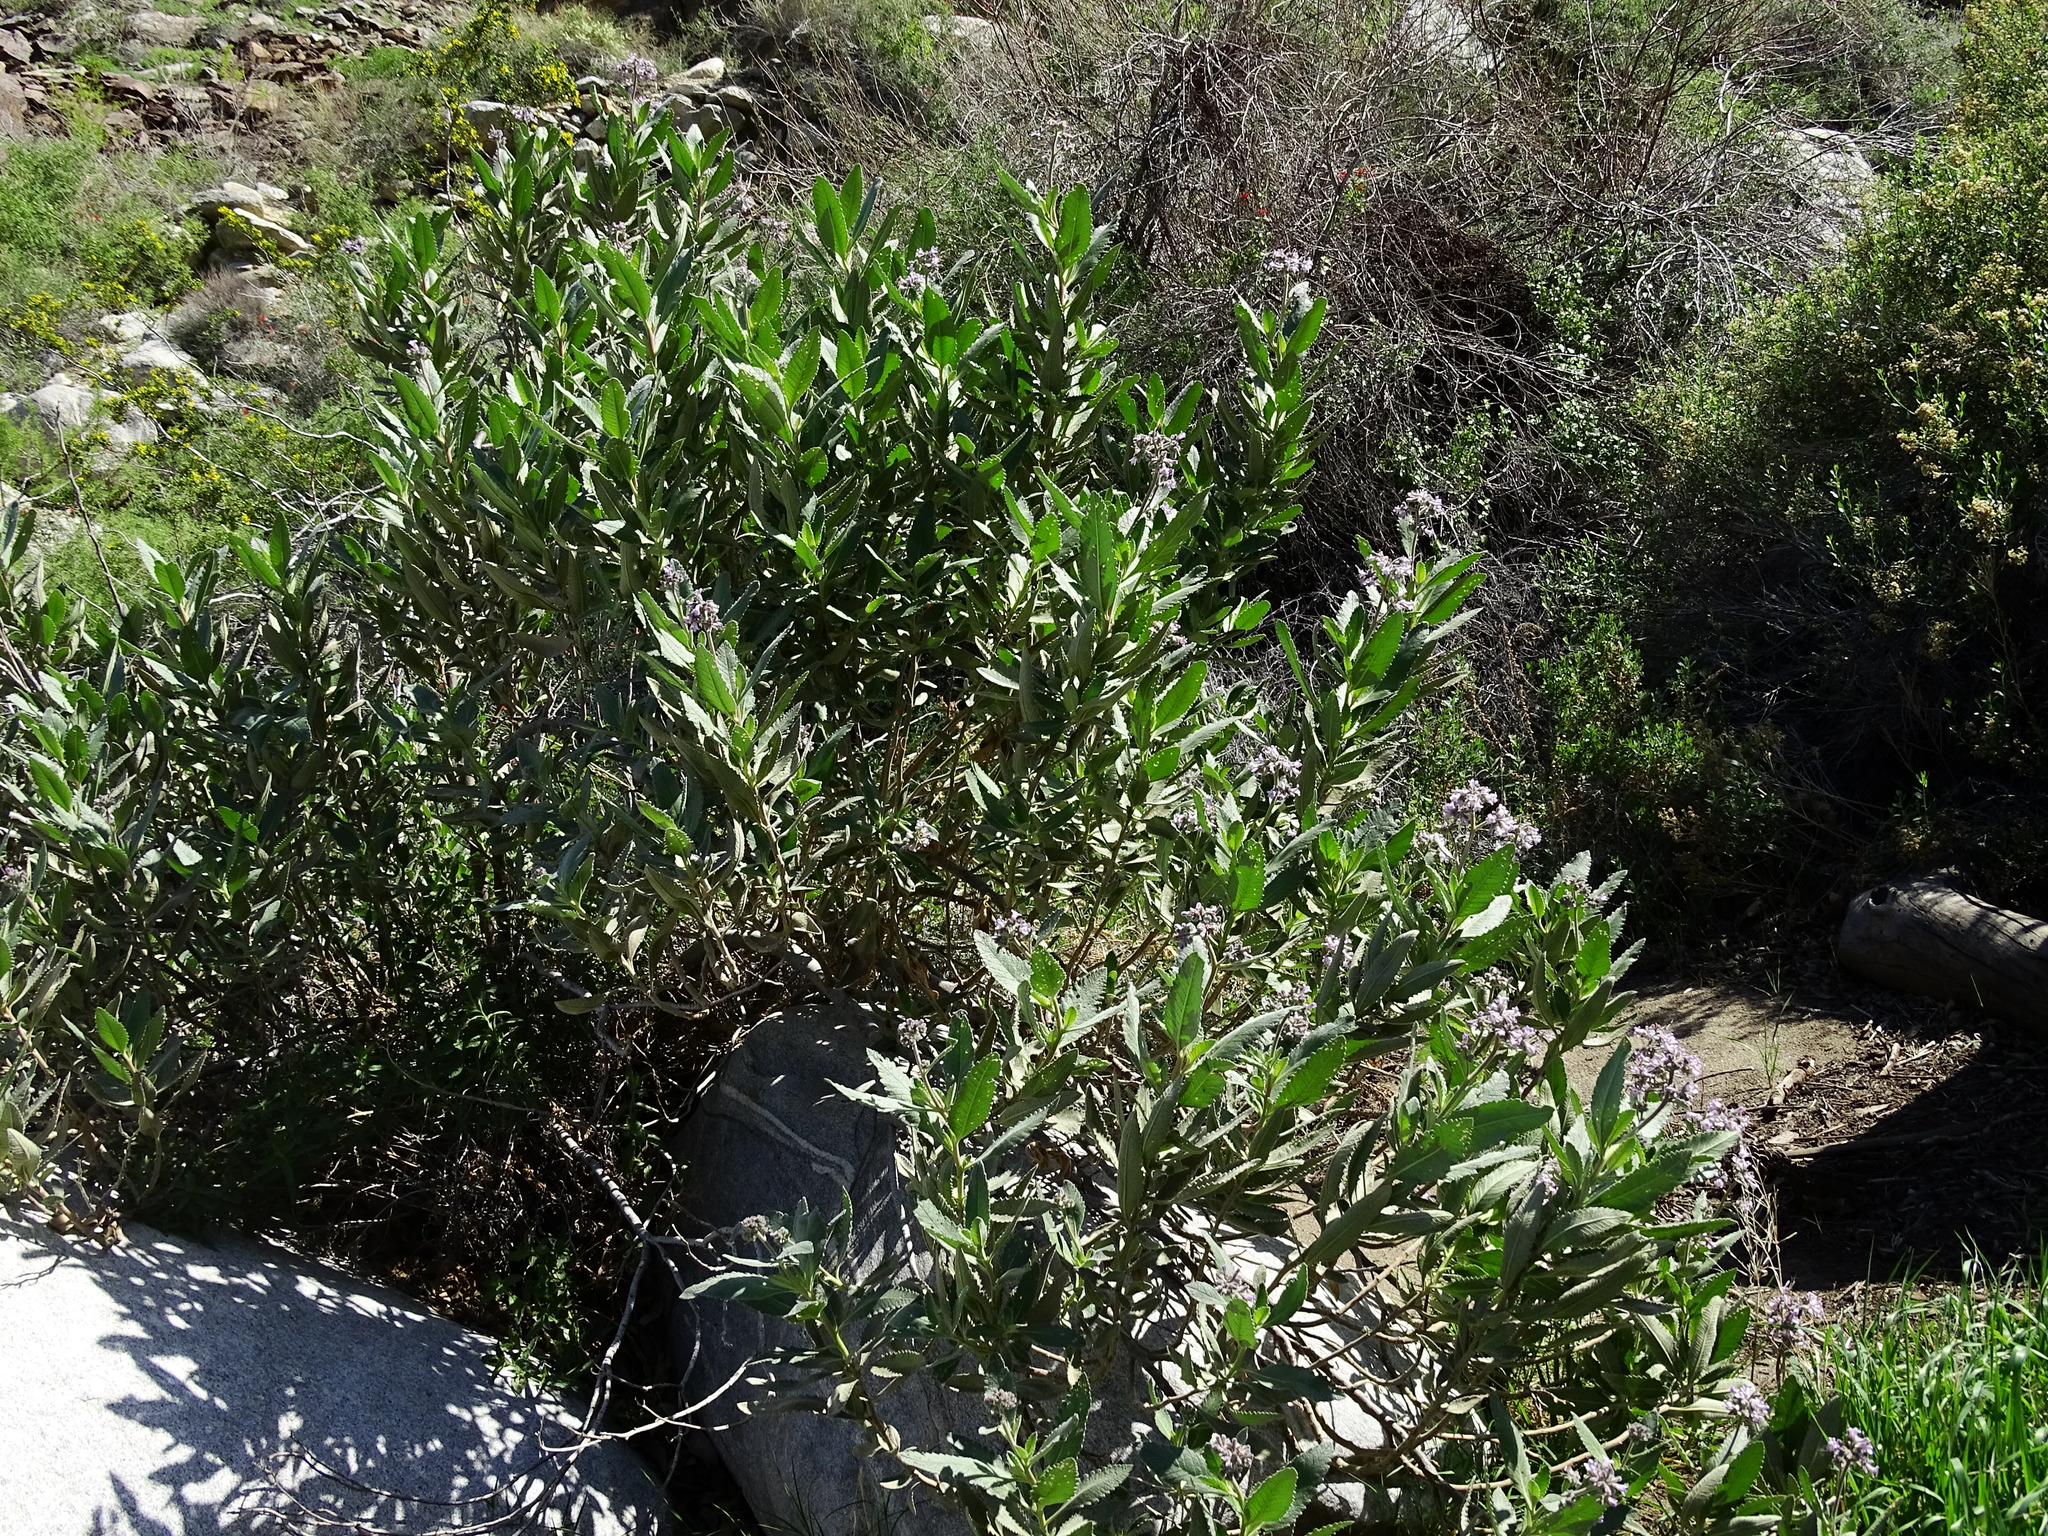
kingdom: Plantae
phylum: Tracheophyta
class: Magnoliopsida
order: Boraginales
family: Namaceae
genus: Eriodictyon
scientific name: Eriodictyon crassifolium
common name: Thick-leaf yerba-santa
